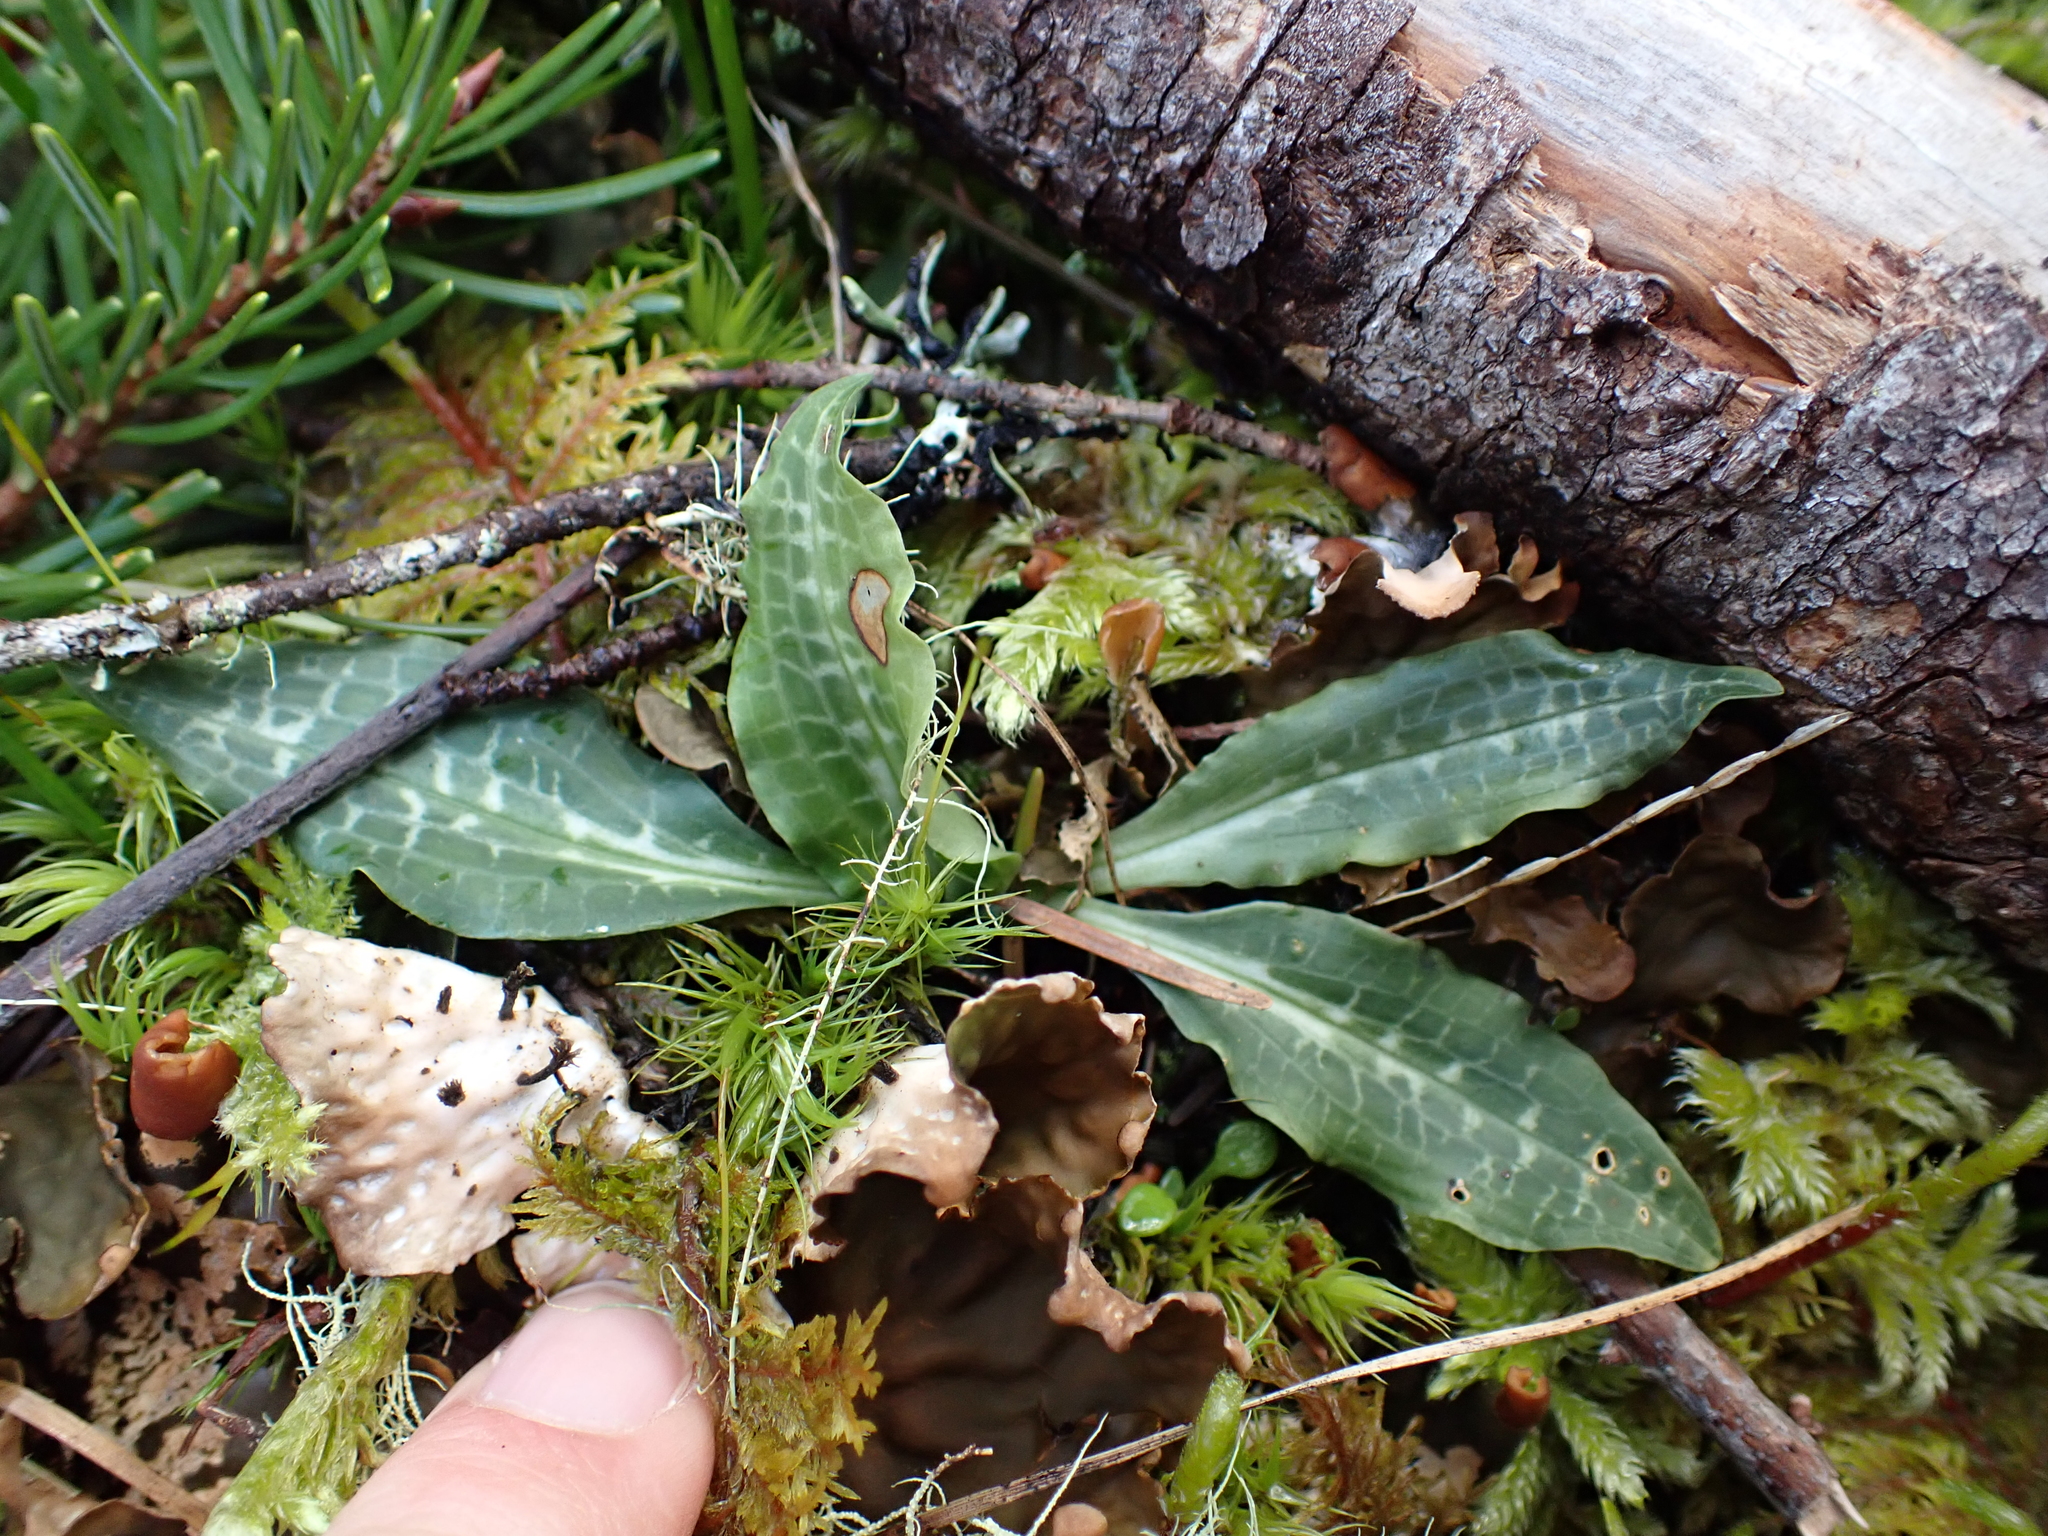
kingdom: Plantae
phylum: Tracheophyta
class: Liliopsida
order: Asparagales
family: Orchidaceae
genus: Goodyera
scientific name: Goodyera oblongifolia
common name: Giant rattlesnake-plantain
